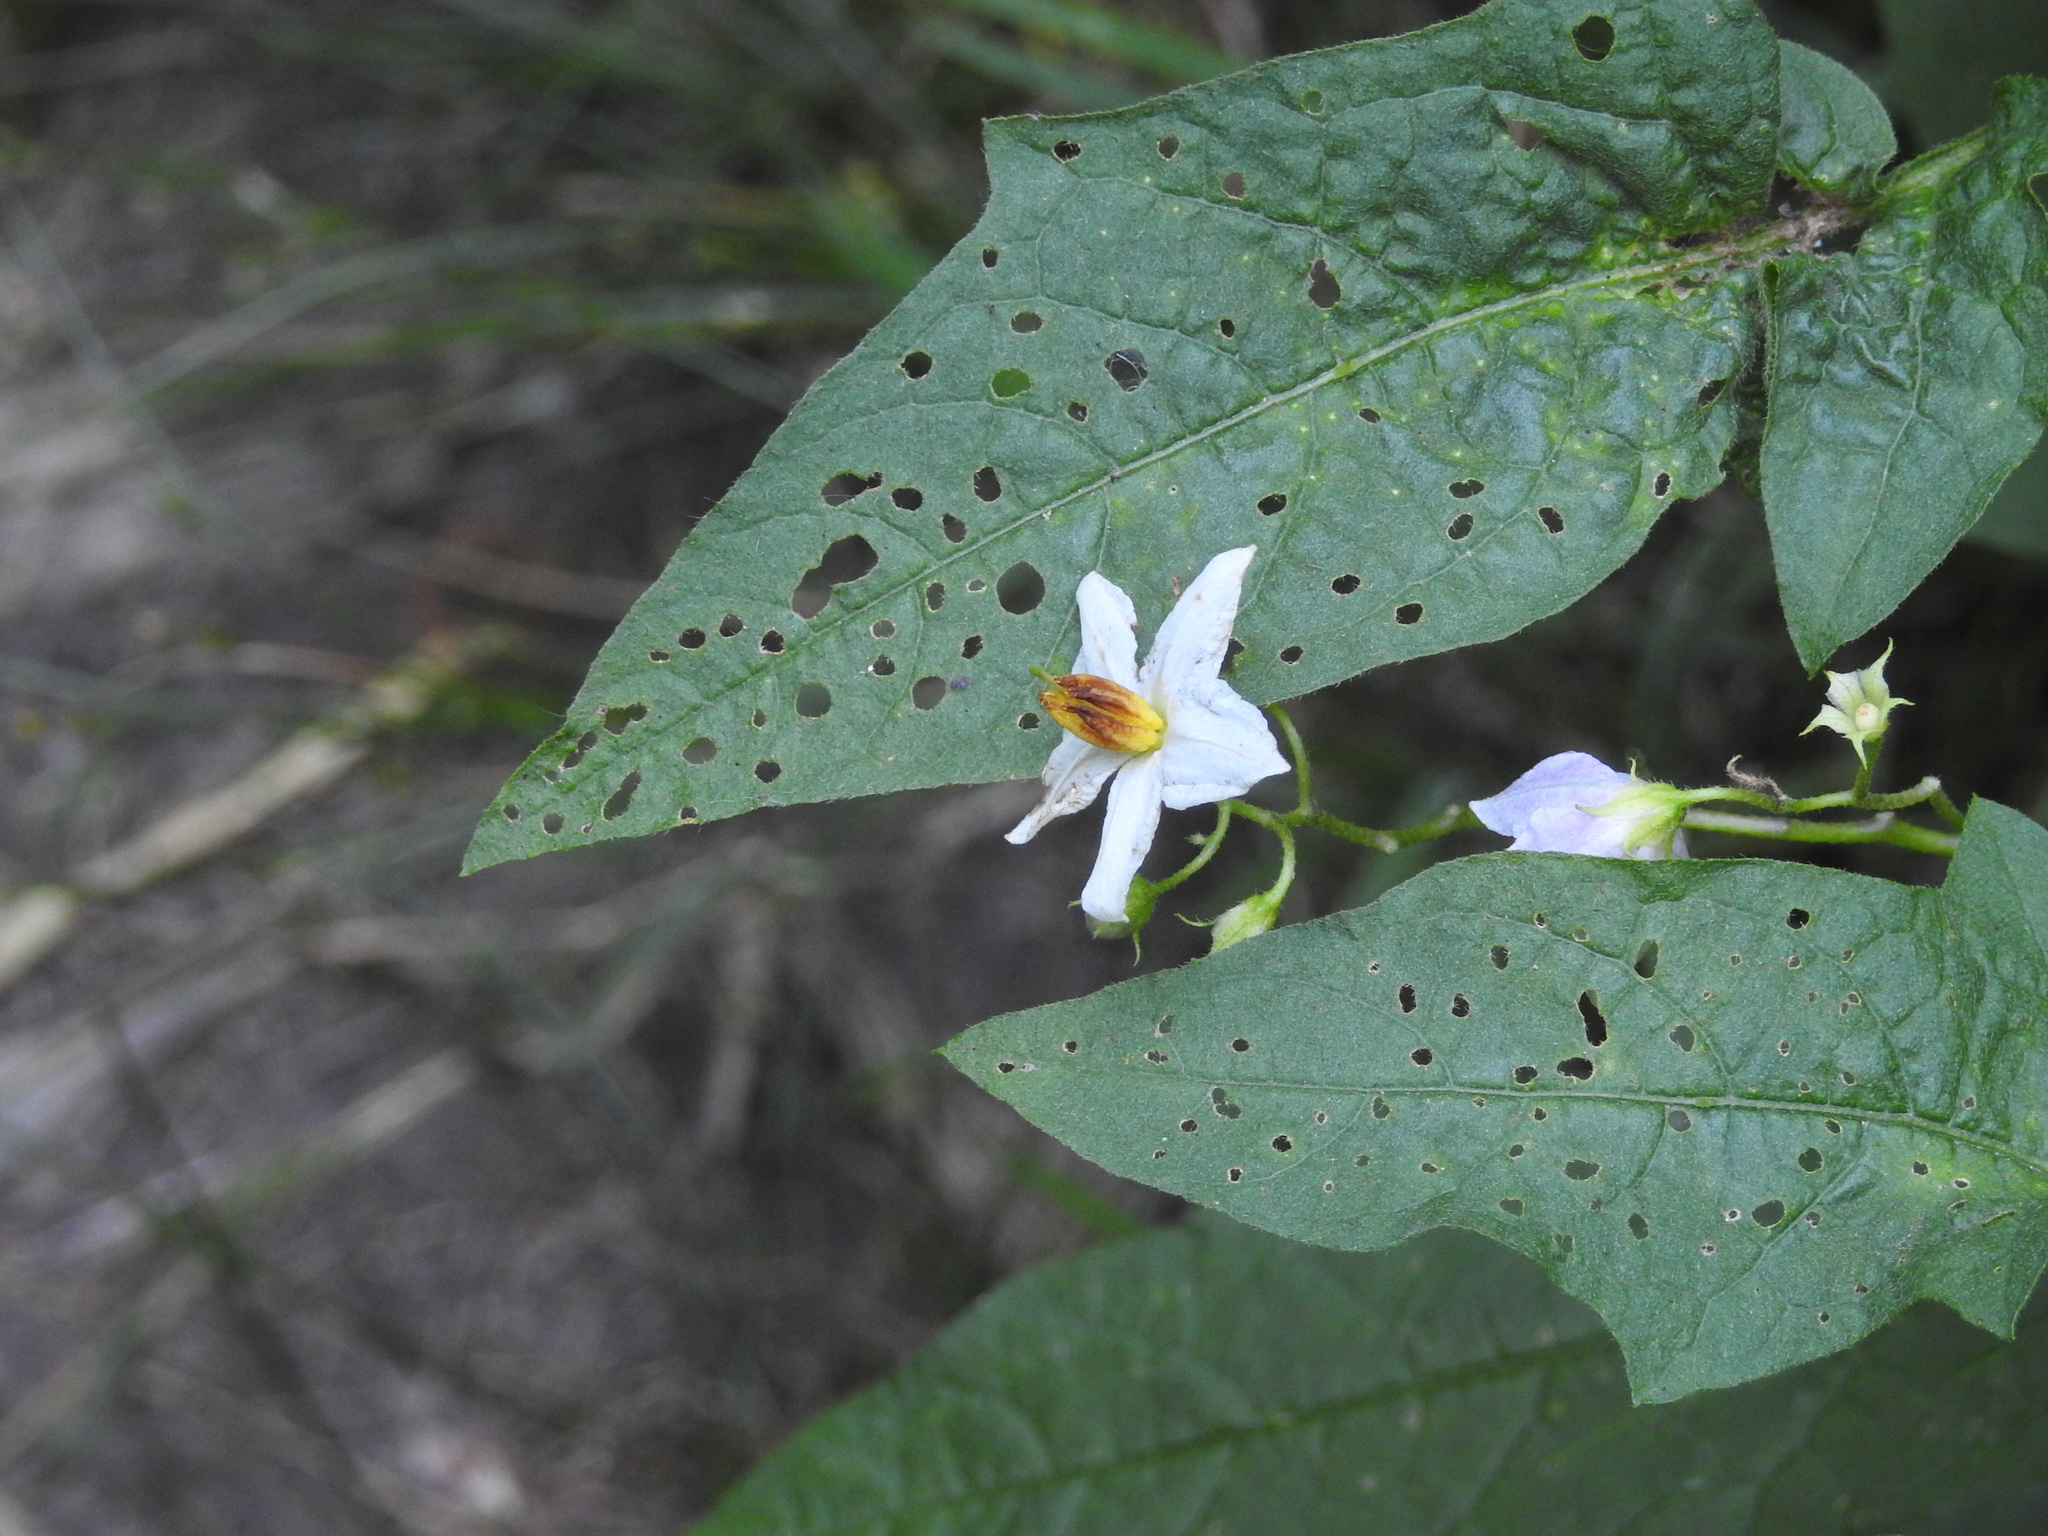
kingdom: Plantae
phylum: Tracheophyta
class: Magnoliopsida
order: Solanales
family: Solanaceae
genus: Solanum
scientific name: Solanum carolinense
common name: Horse-nettle
